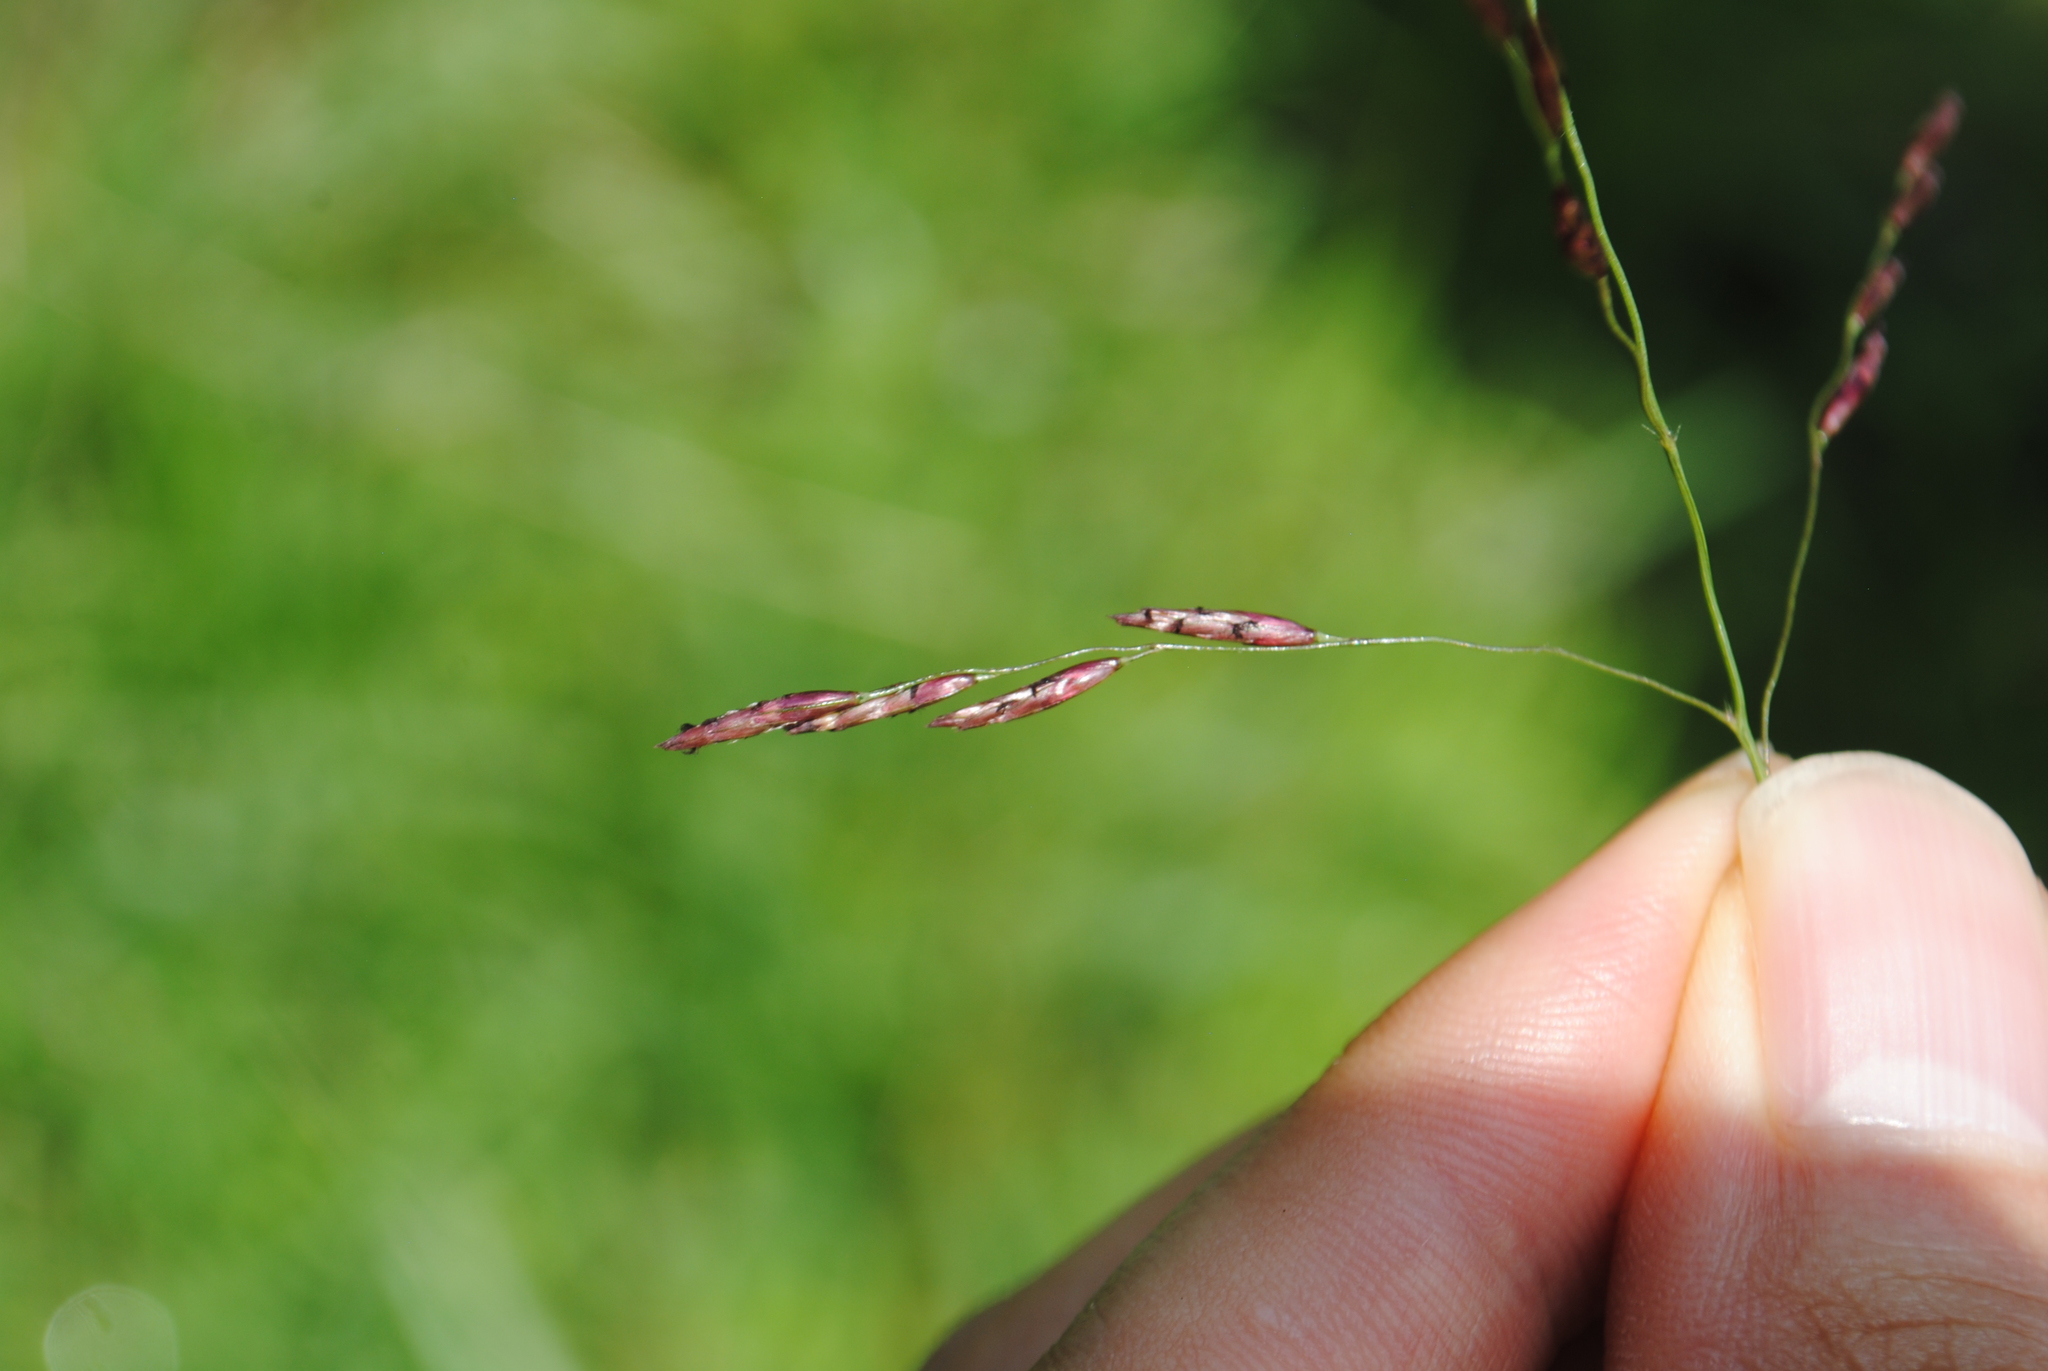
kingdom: Plantae
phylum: Tracheophyta
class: Liliopsida
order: Poales
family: Poaceae
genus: Tridens
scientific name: Tridens flavus
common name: Purpletop
